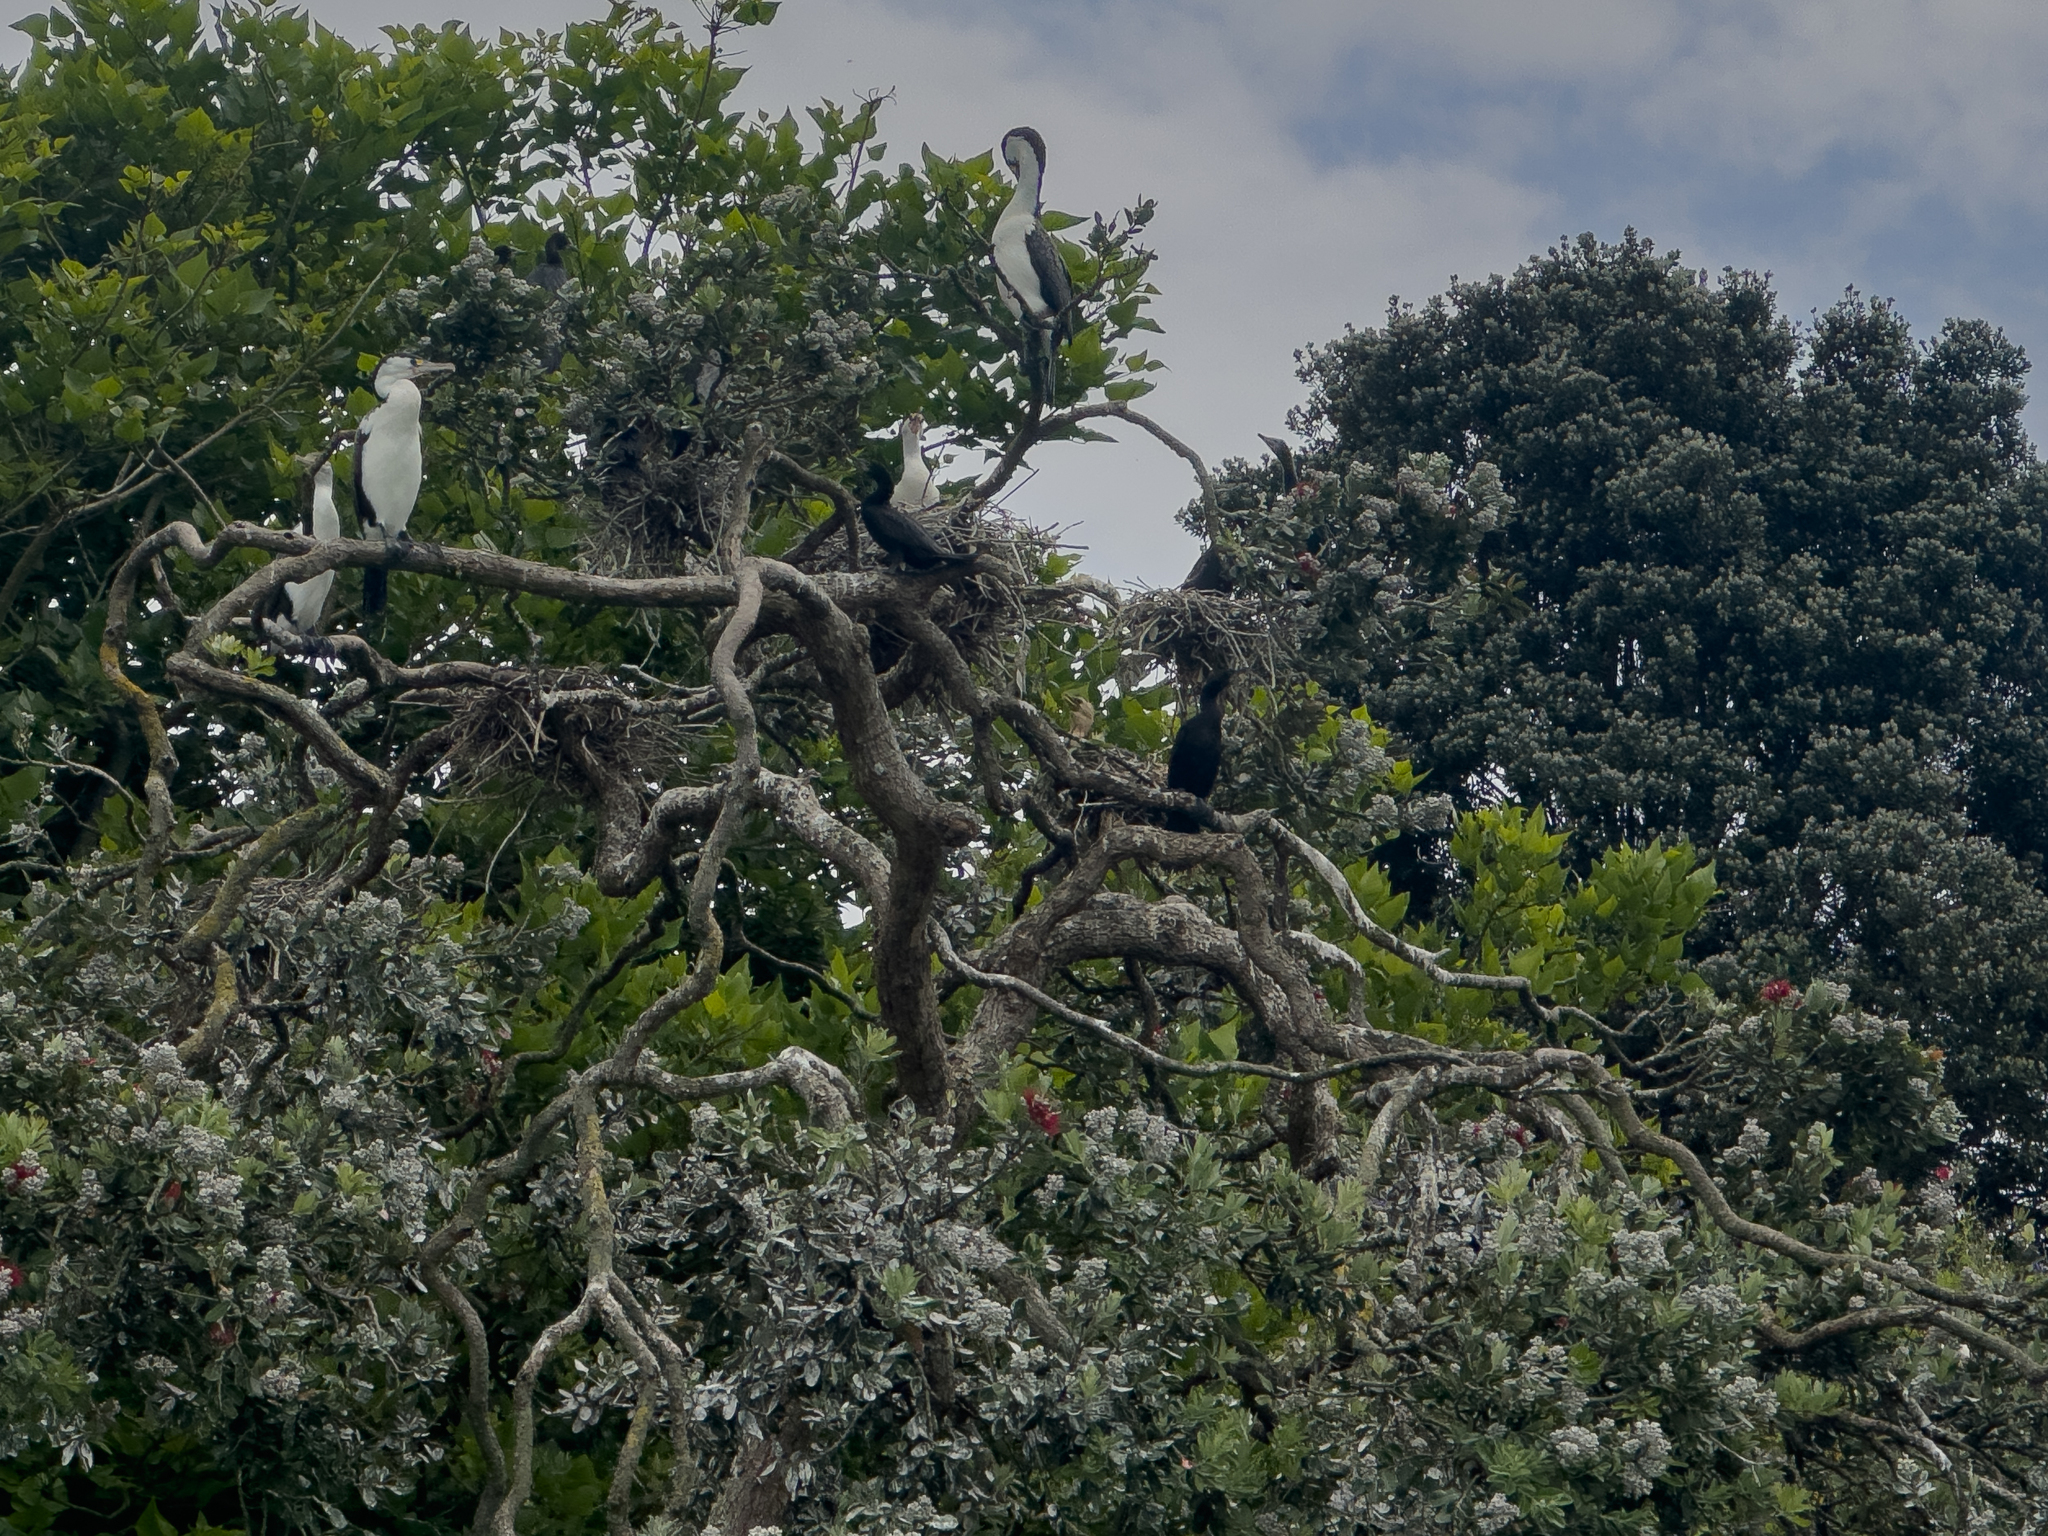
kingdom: Animalia
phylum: Chordata
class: Aves
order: Suliformes
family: Phalacrocoracidae
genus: Microcarbo
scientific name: Microcarbo melanoleucos
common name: Little pied cormorant
